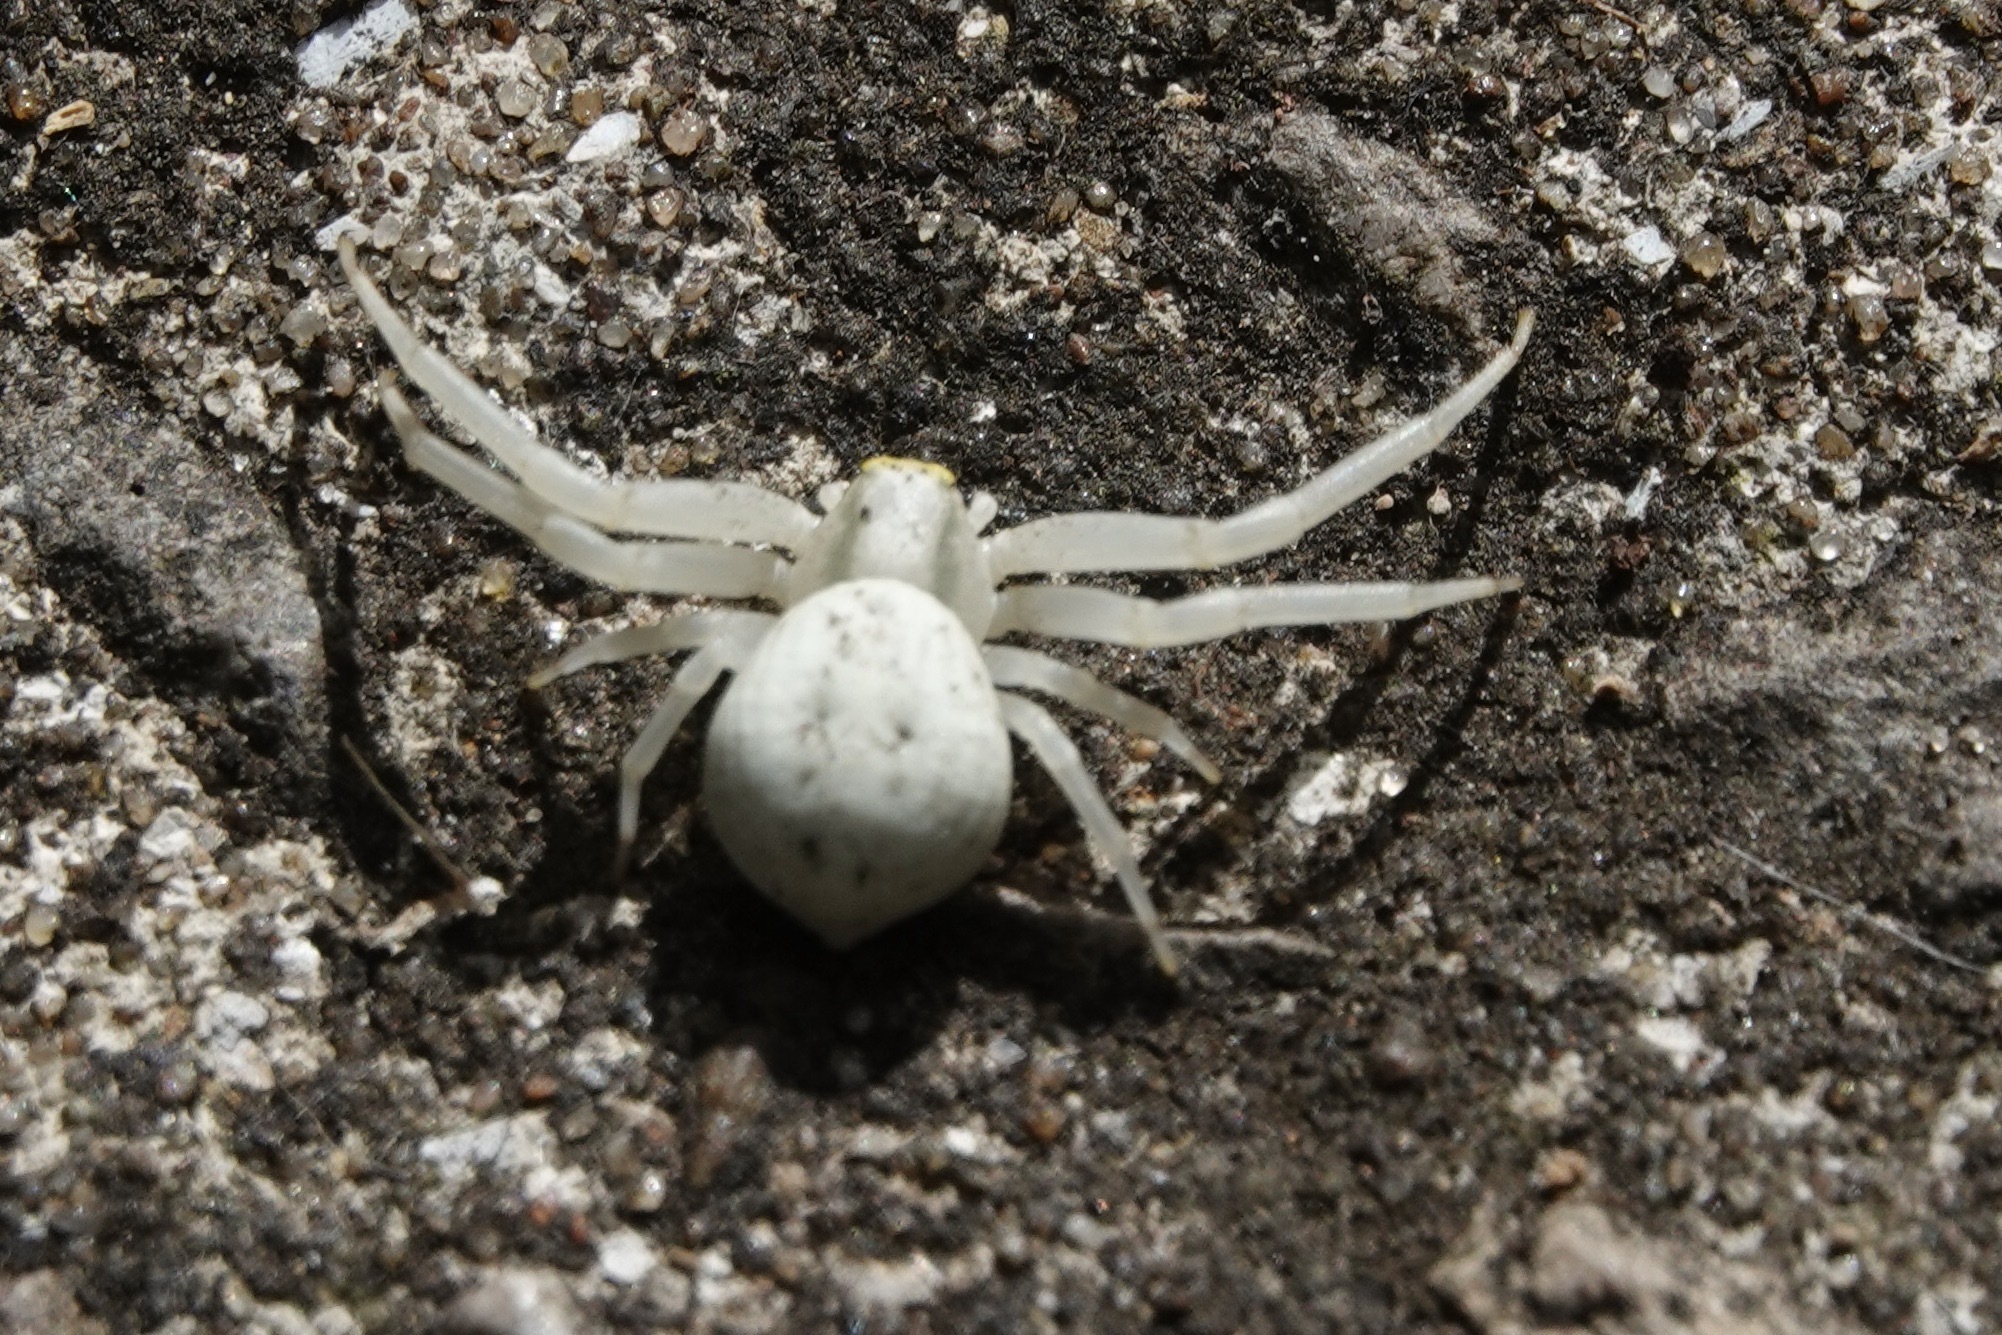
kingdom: Animalia
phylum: Arthropoda
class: Arachnida
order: Araneae
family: Thomisidae
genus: Misumena
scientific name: Misumena vatia
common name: Goldenrod crab spider
